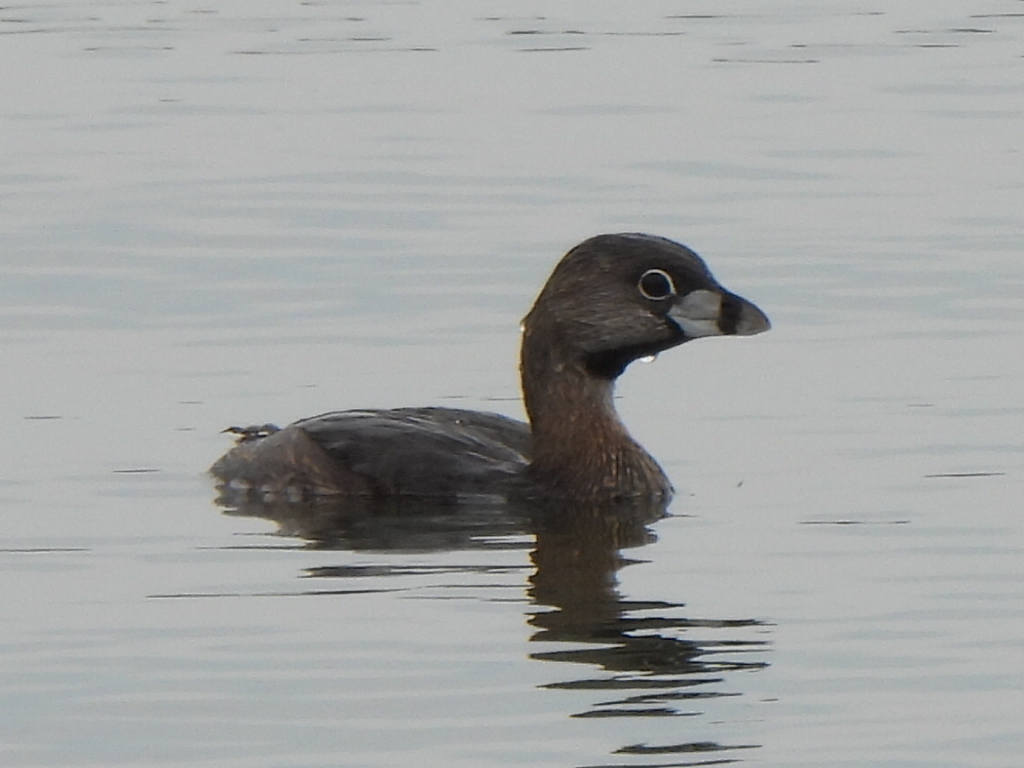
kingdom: Animalia
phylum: Chordata
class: Aves
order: Podicipediformes
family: Podicipedidae
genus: Podilymbus
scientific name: Podilymbus podiceps
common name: Pied-billed grebe
